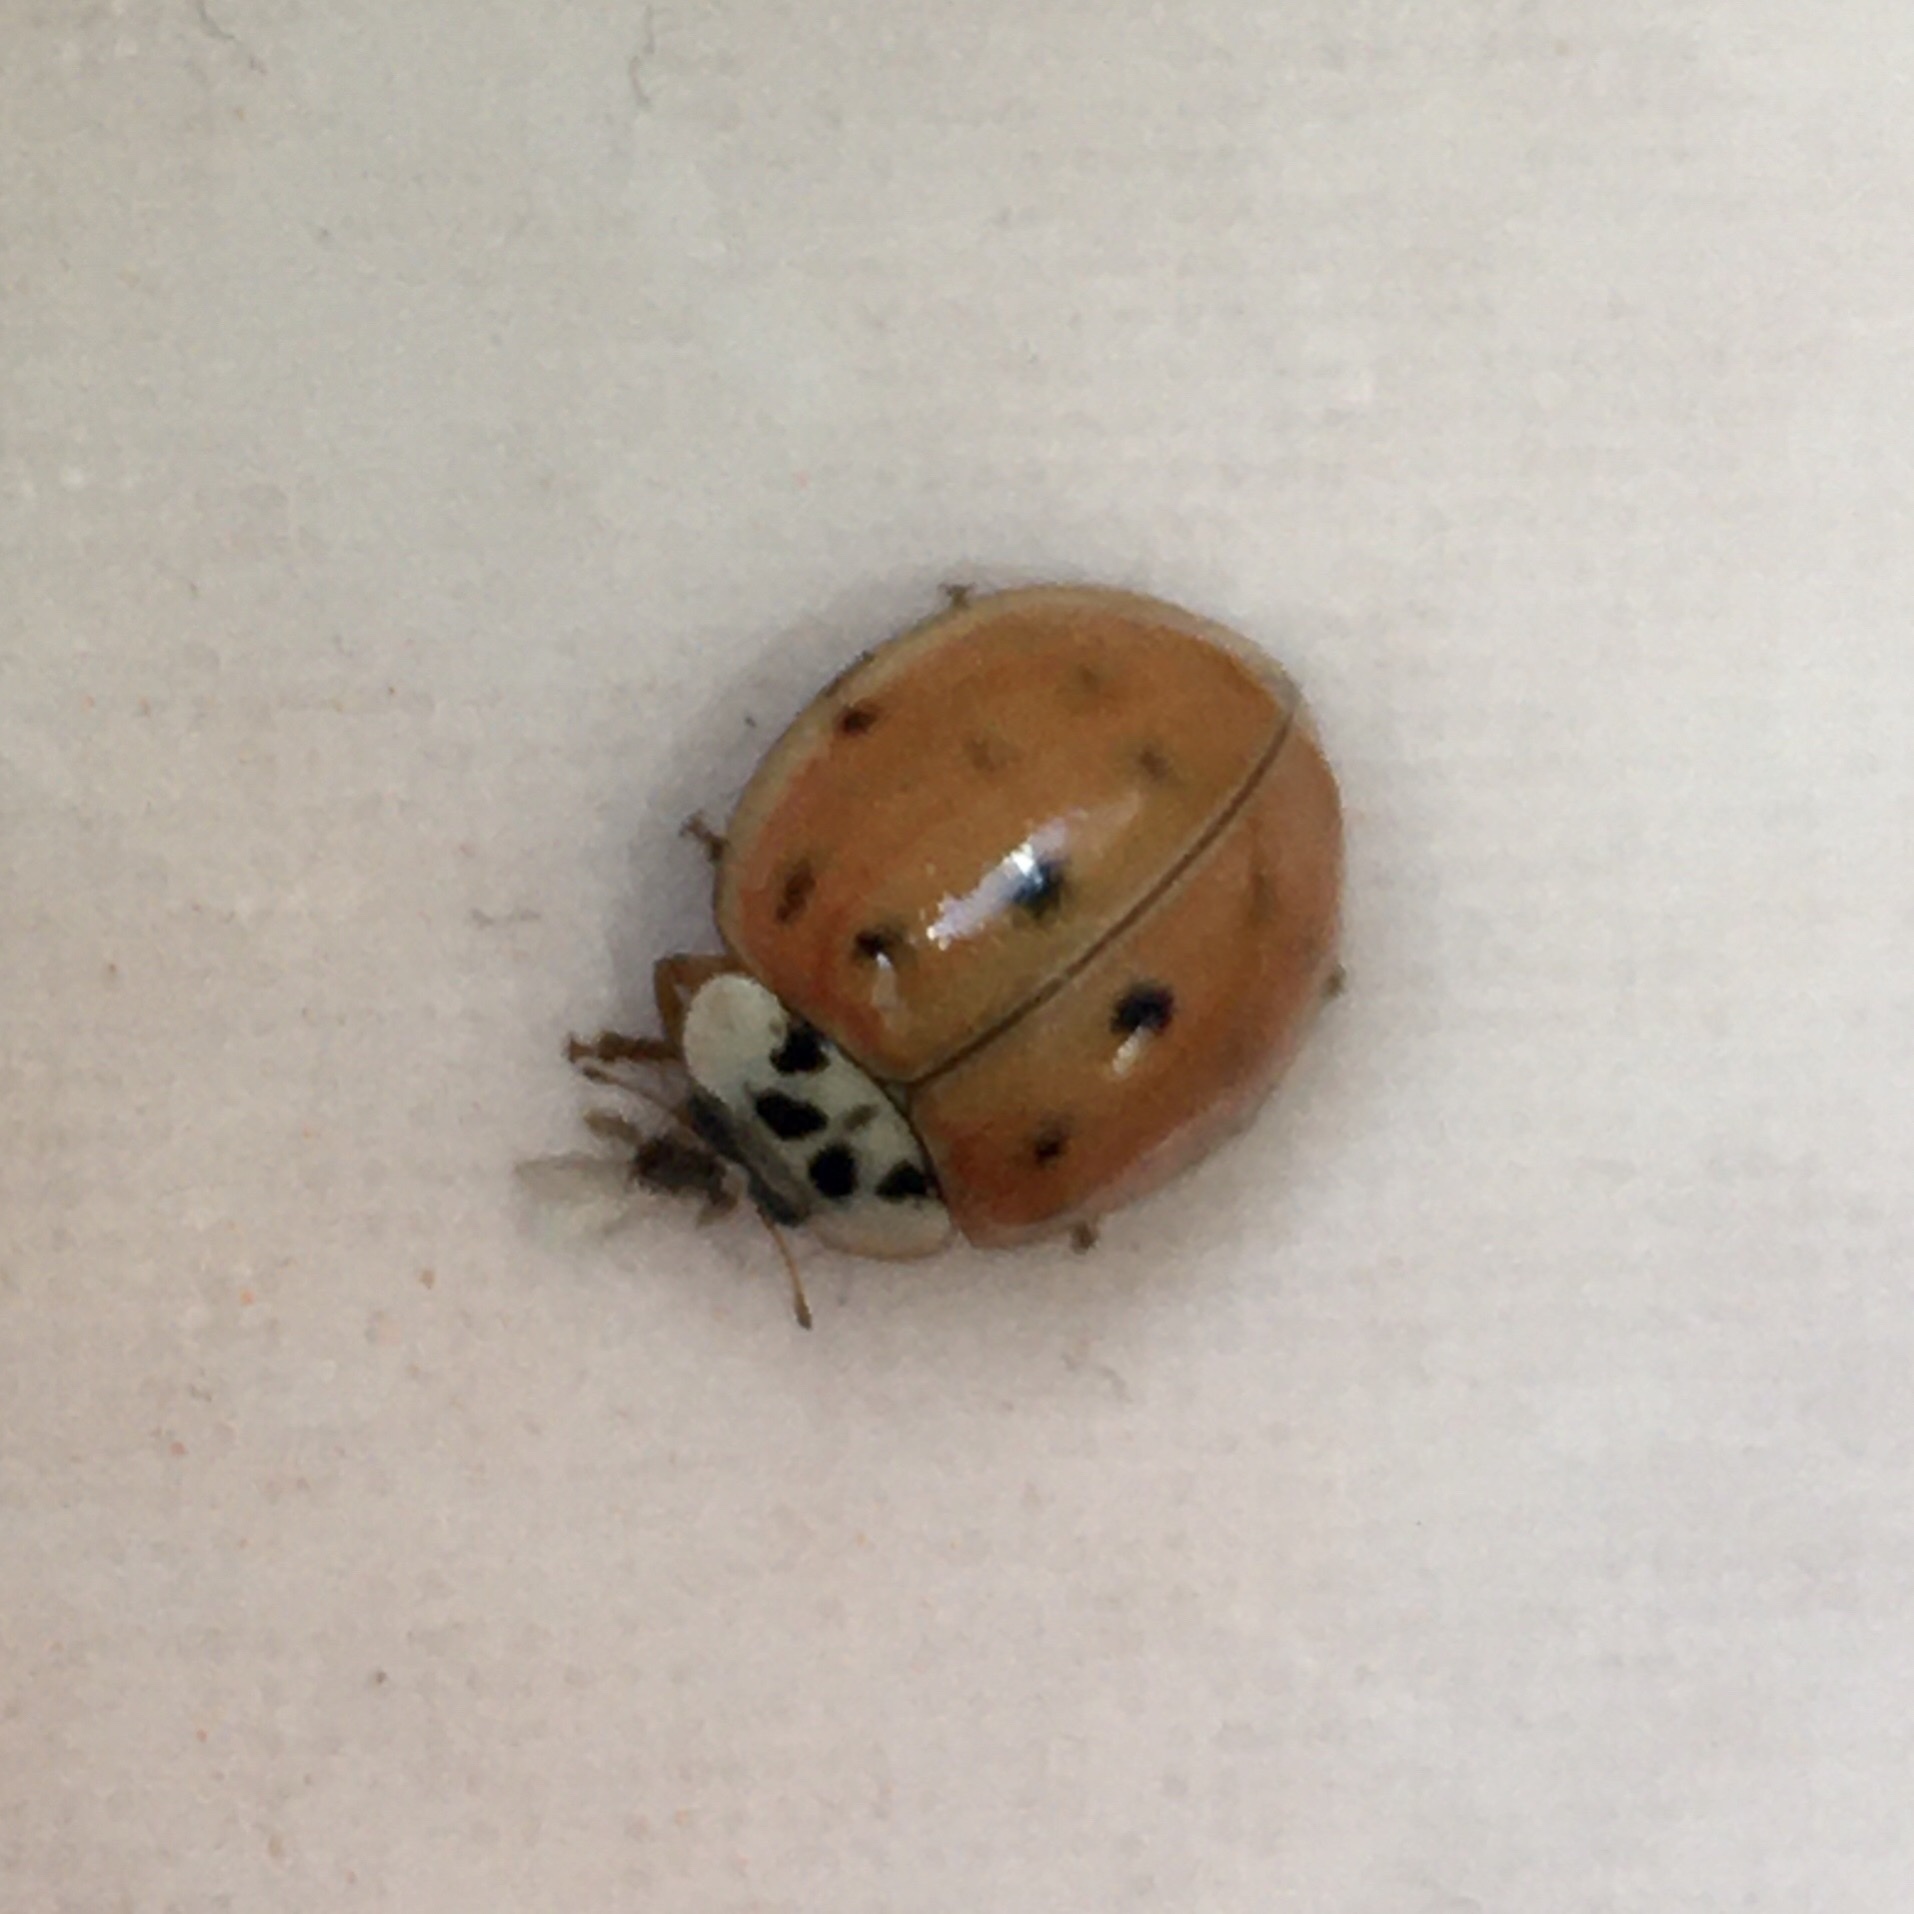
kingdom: Animalia
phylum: Arthropoda
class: Insecta
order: Coleoptera
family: Coccinellidae
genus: Harmonia
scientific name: Harmonia axyridis
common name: Harlequin ladybird
